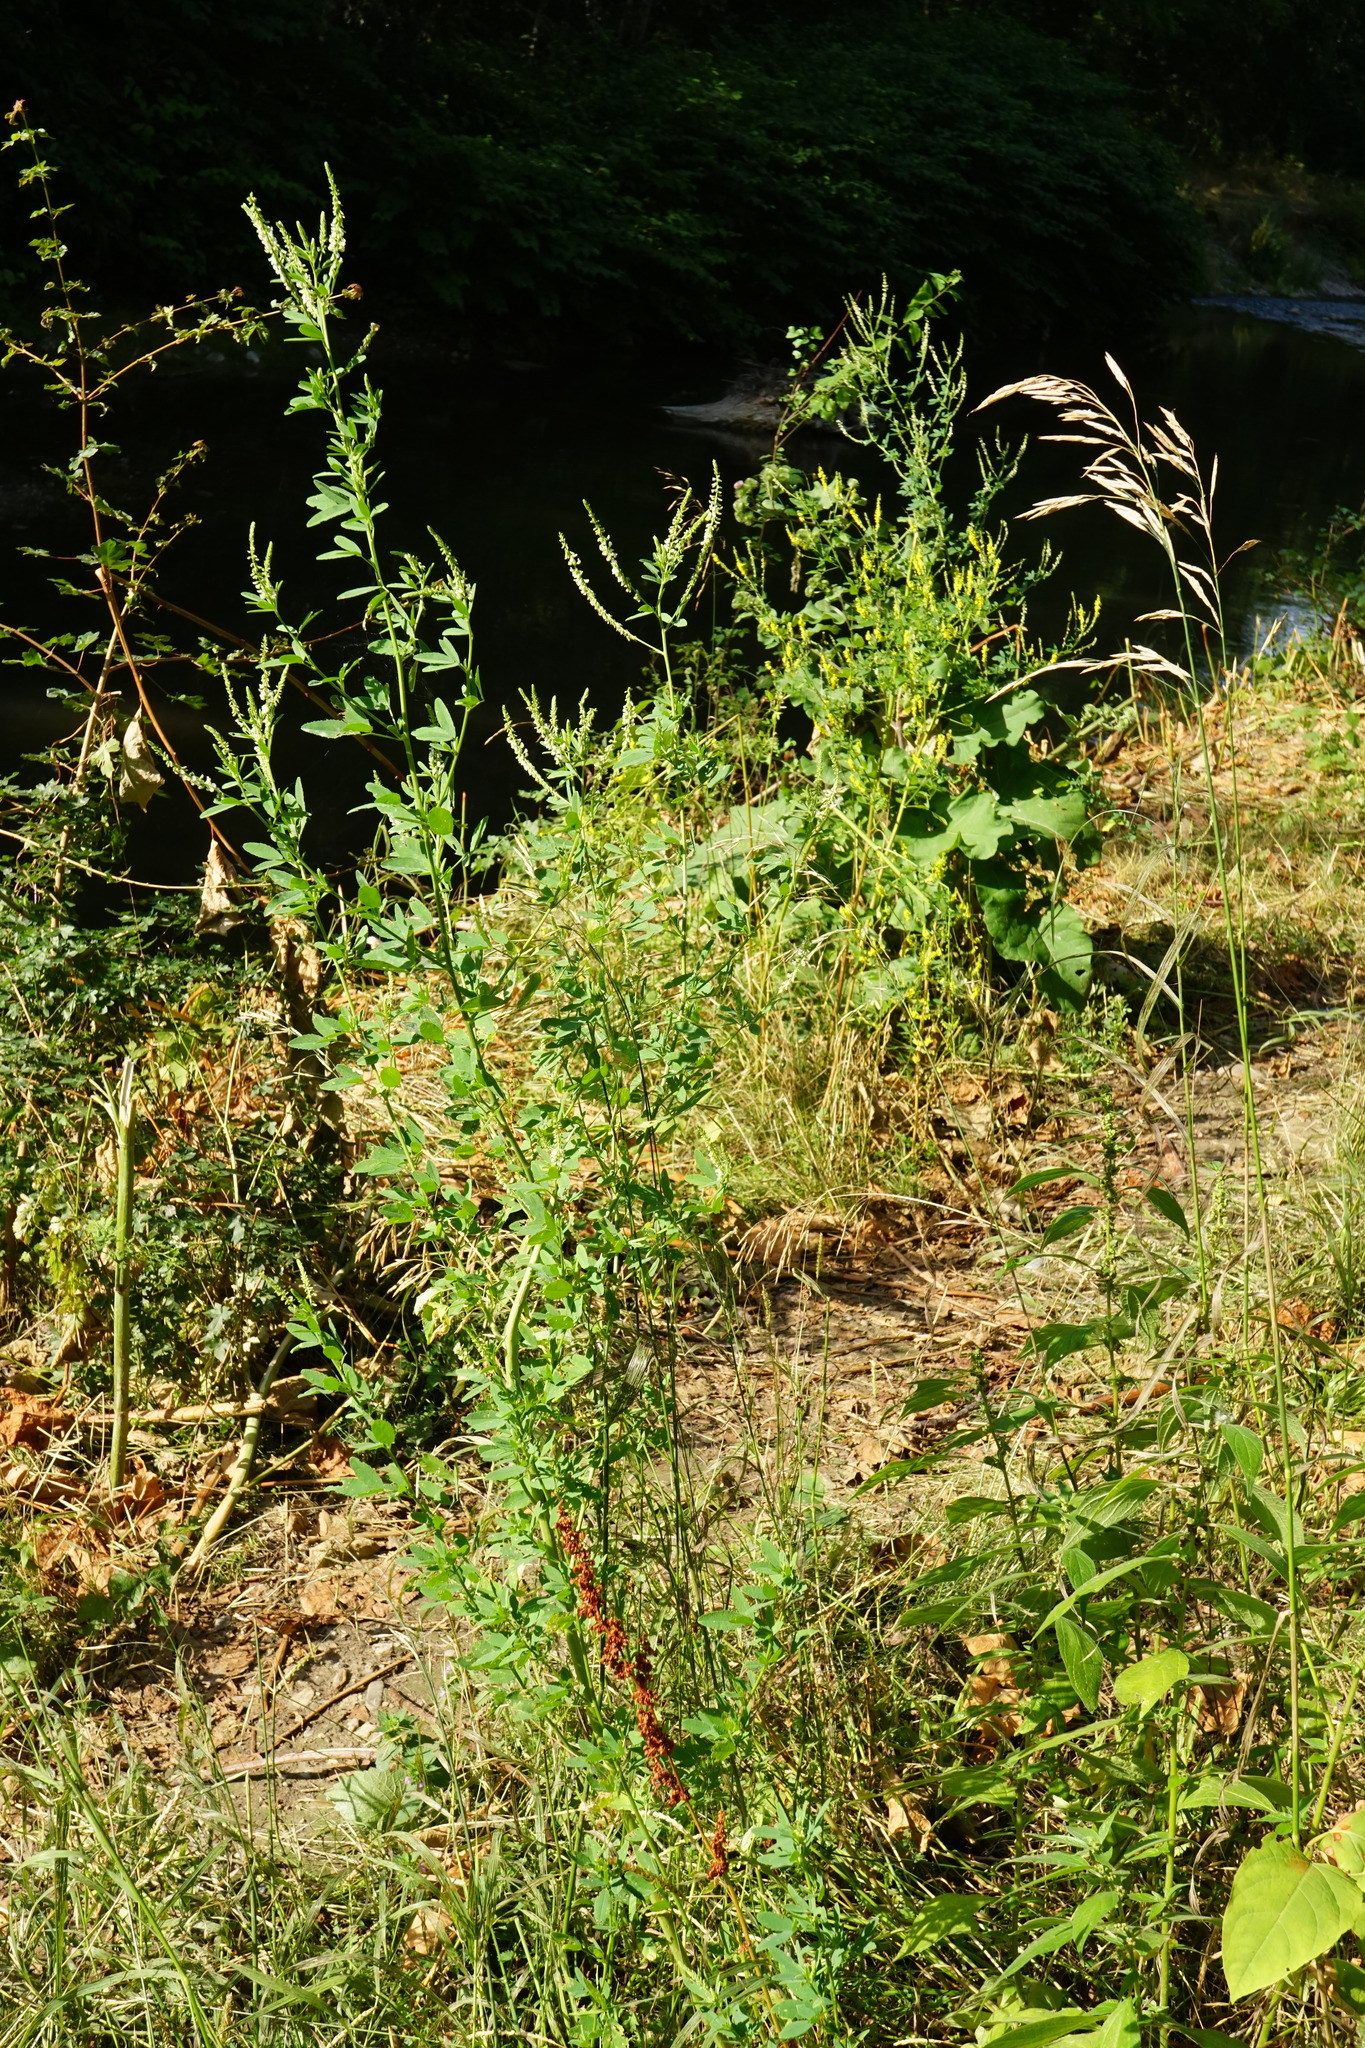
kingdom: Plantae
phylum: Tracheophyta
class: Magnoliopsida
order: Fabales
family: Fabaceae
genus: Melilotus
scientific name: Melilotus albus
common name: White melilot
